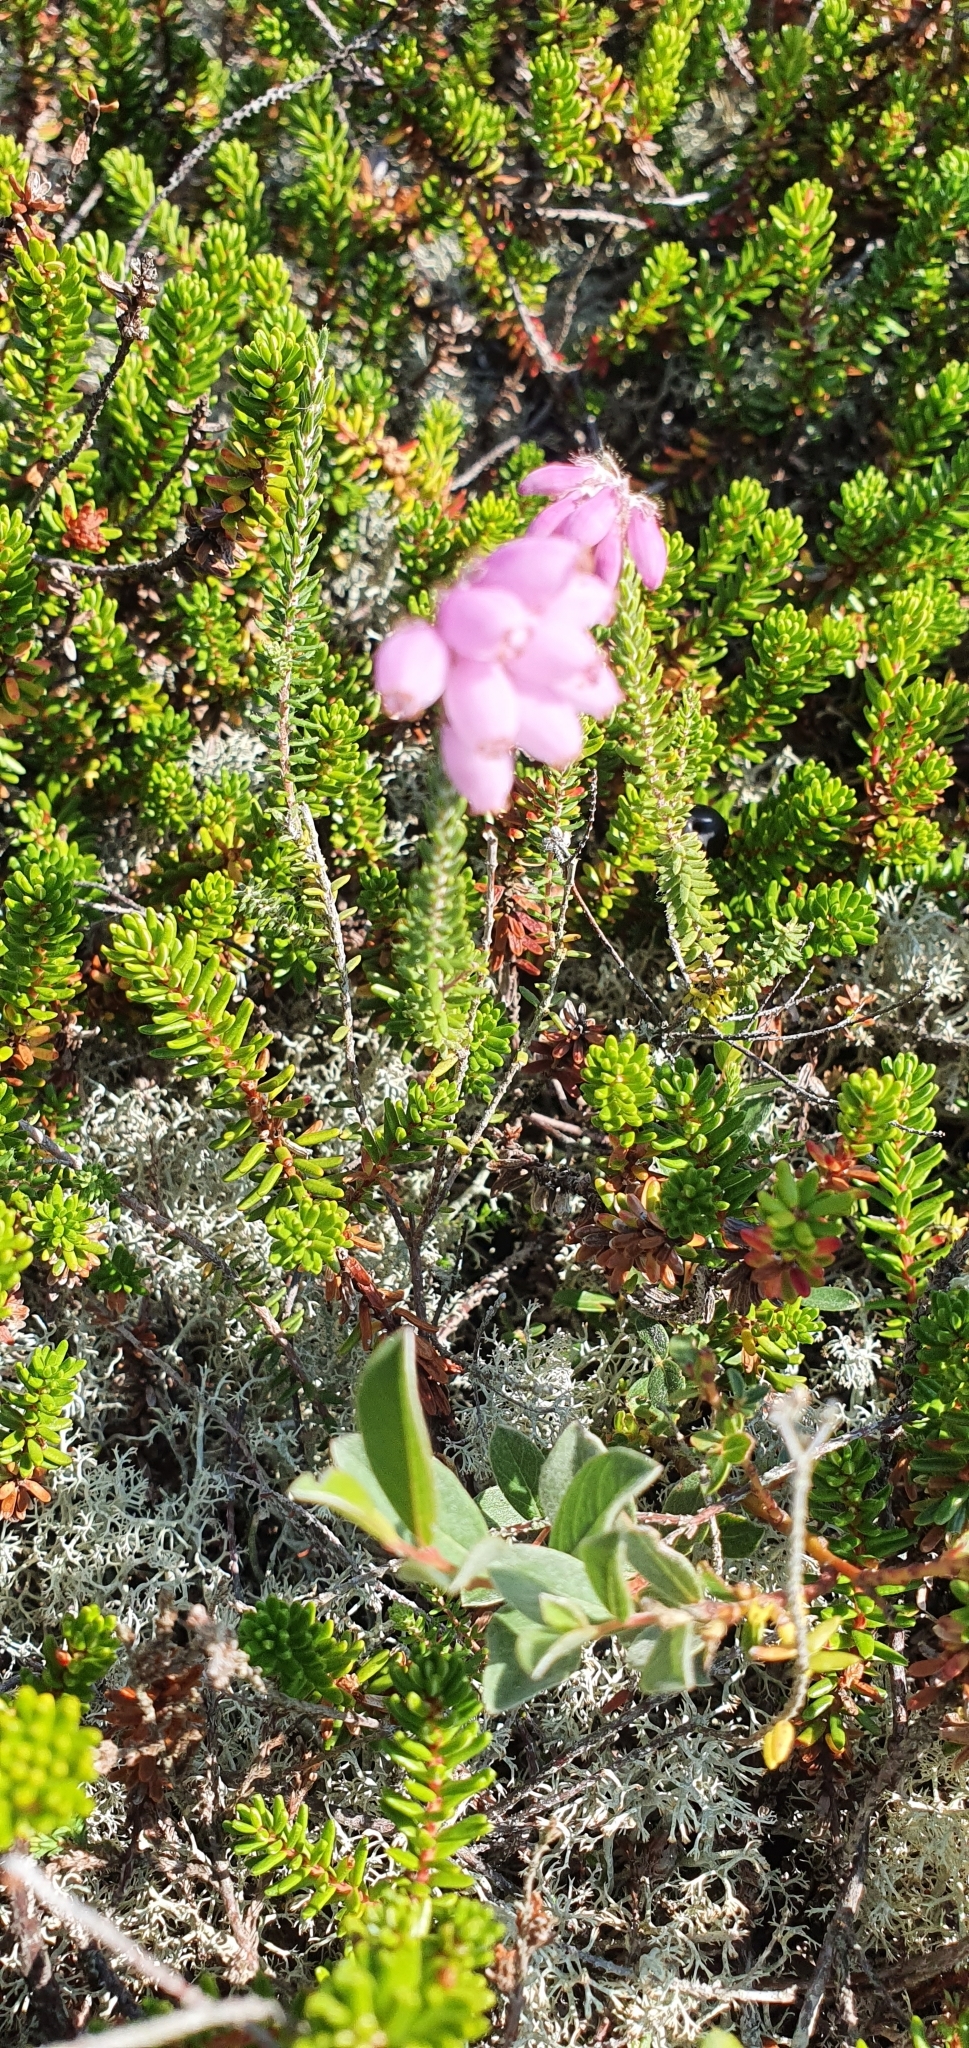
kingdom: Plantae
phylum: Tracheophyta
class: Magnoliopsida
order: Ericales
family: Ericaceae
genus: Erica
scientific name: Erica tetralix
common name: Cross-leaved heath
